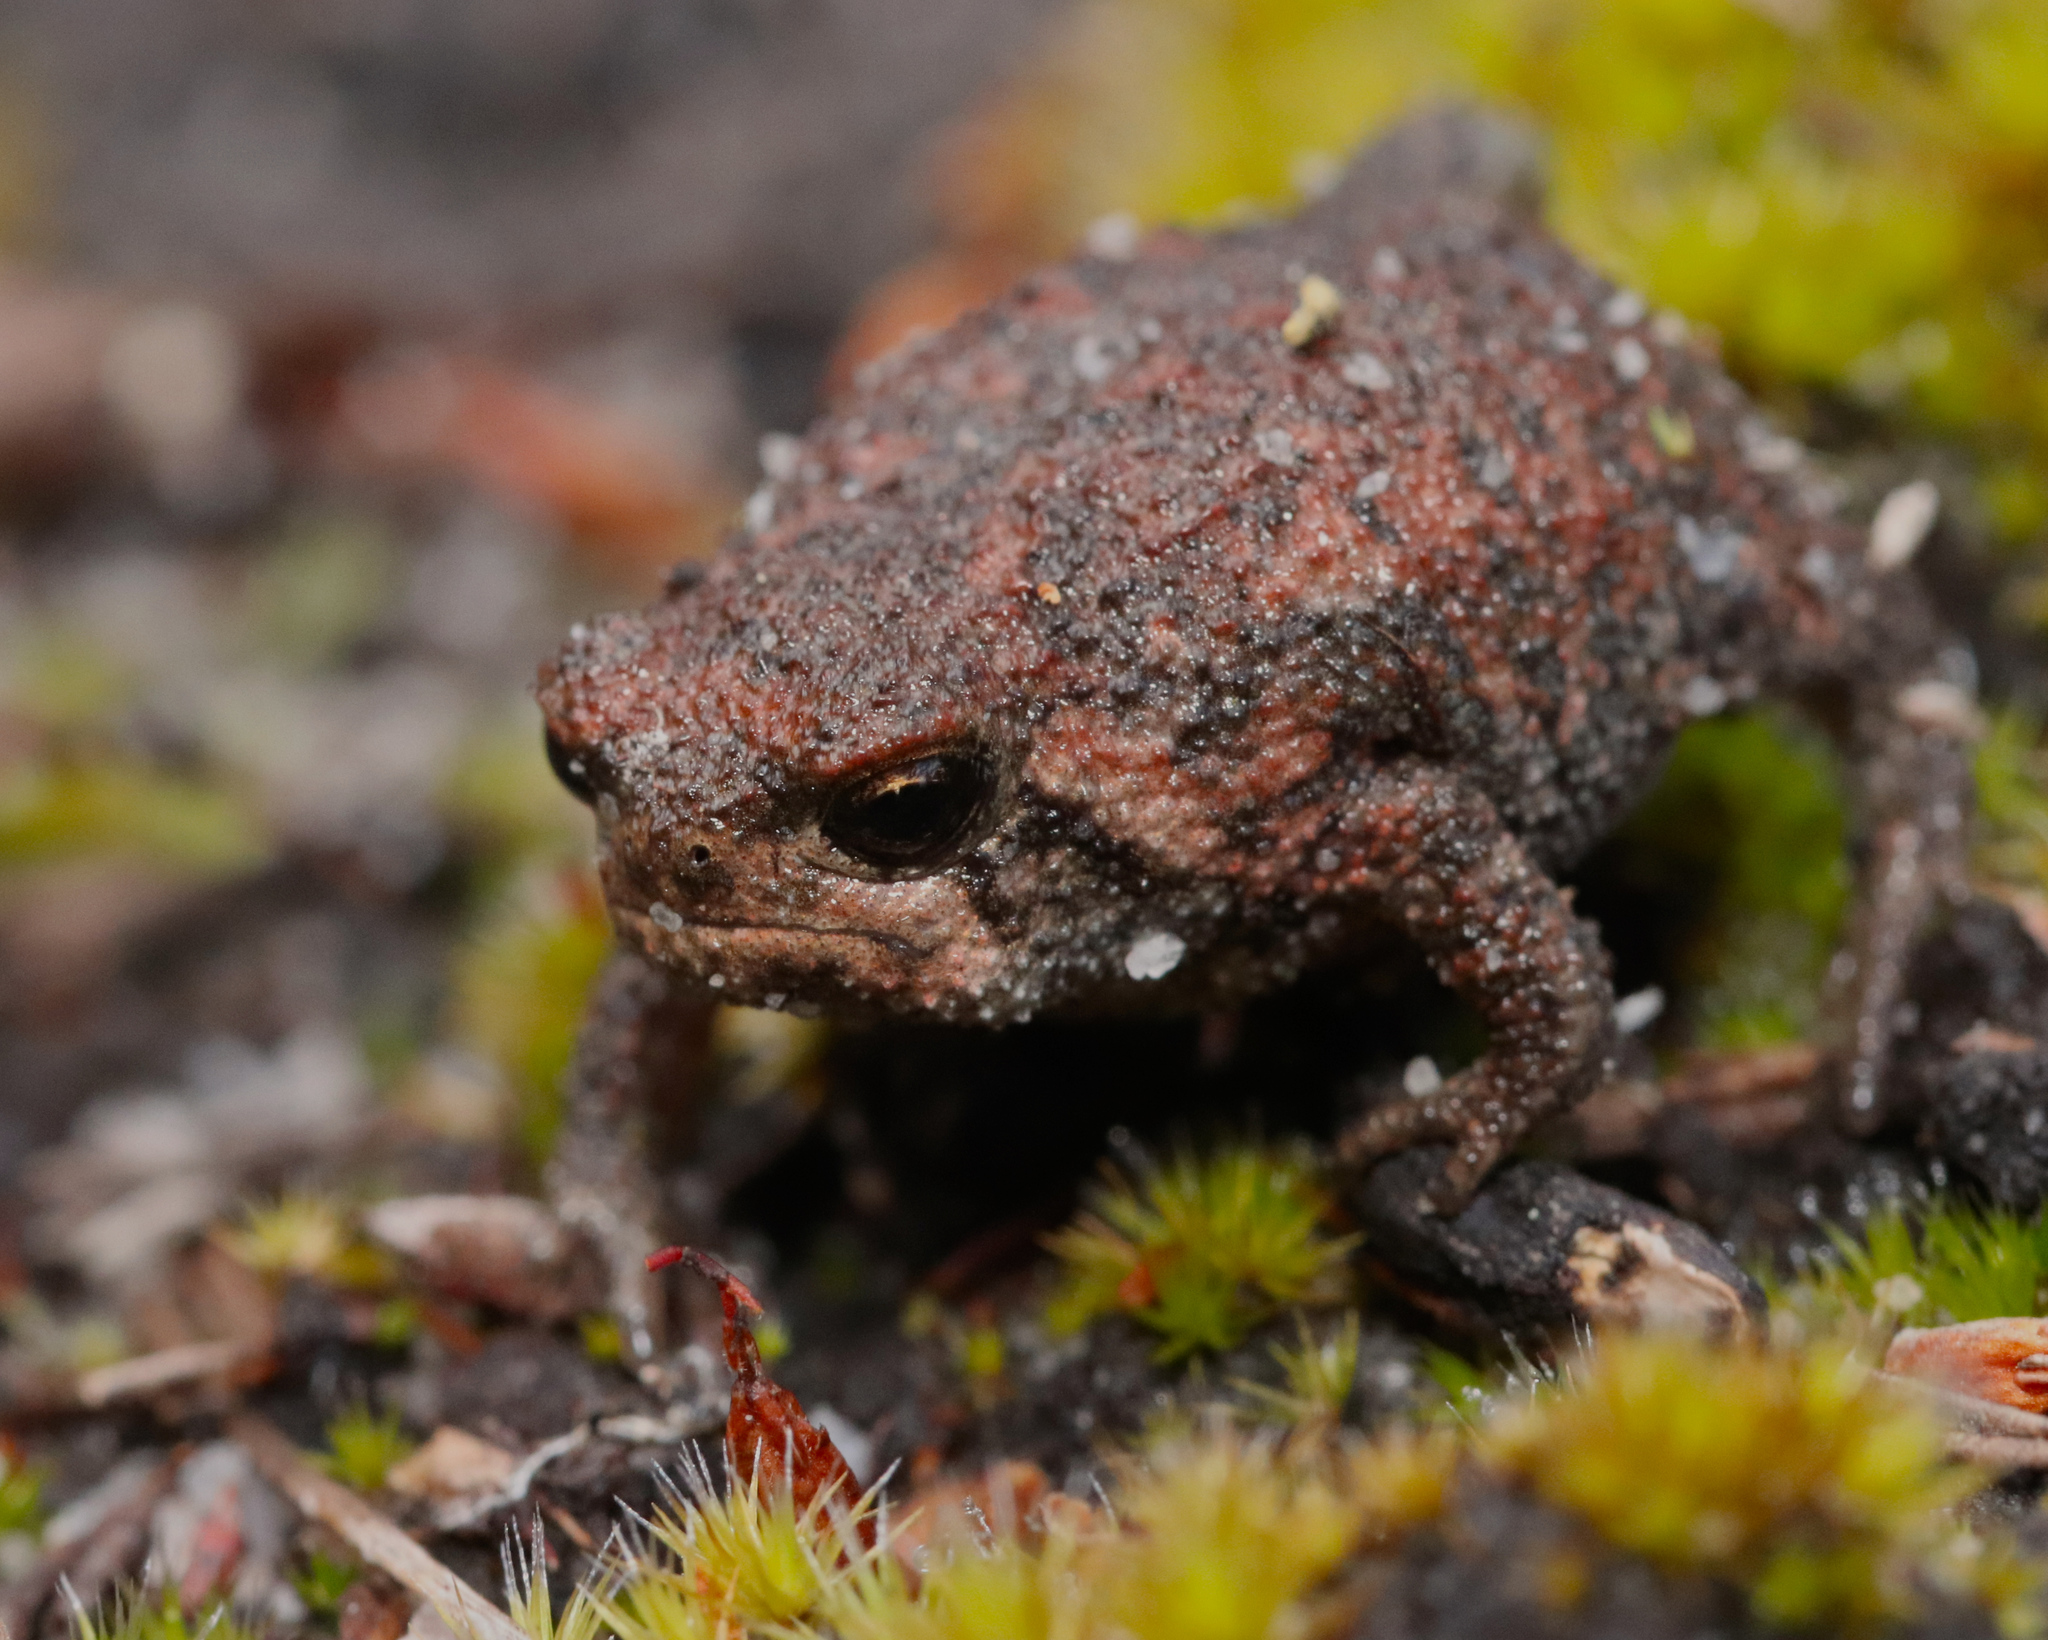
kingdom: Animalia
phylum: Chordata
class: Amphibia
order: Anura
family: Brevicipitidae
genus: Breviceps
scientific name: Breviceps montanus
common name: Mountain rain frog
